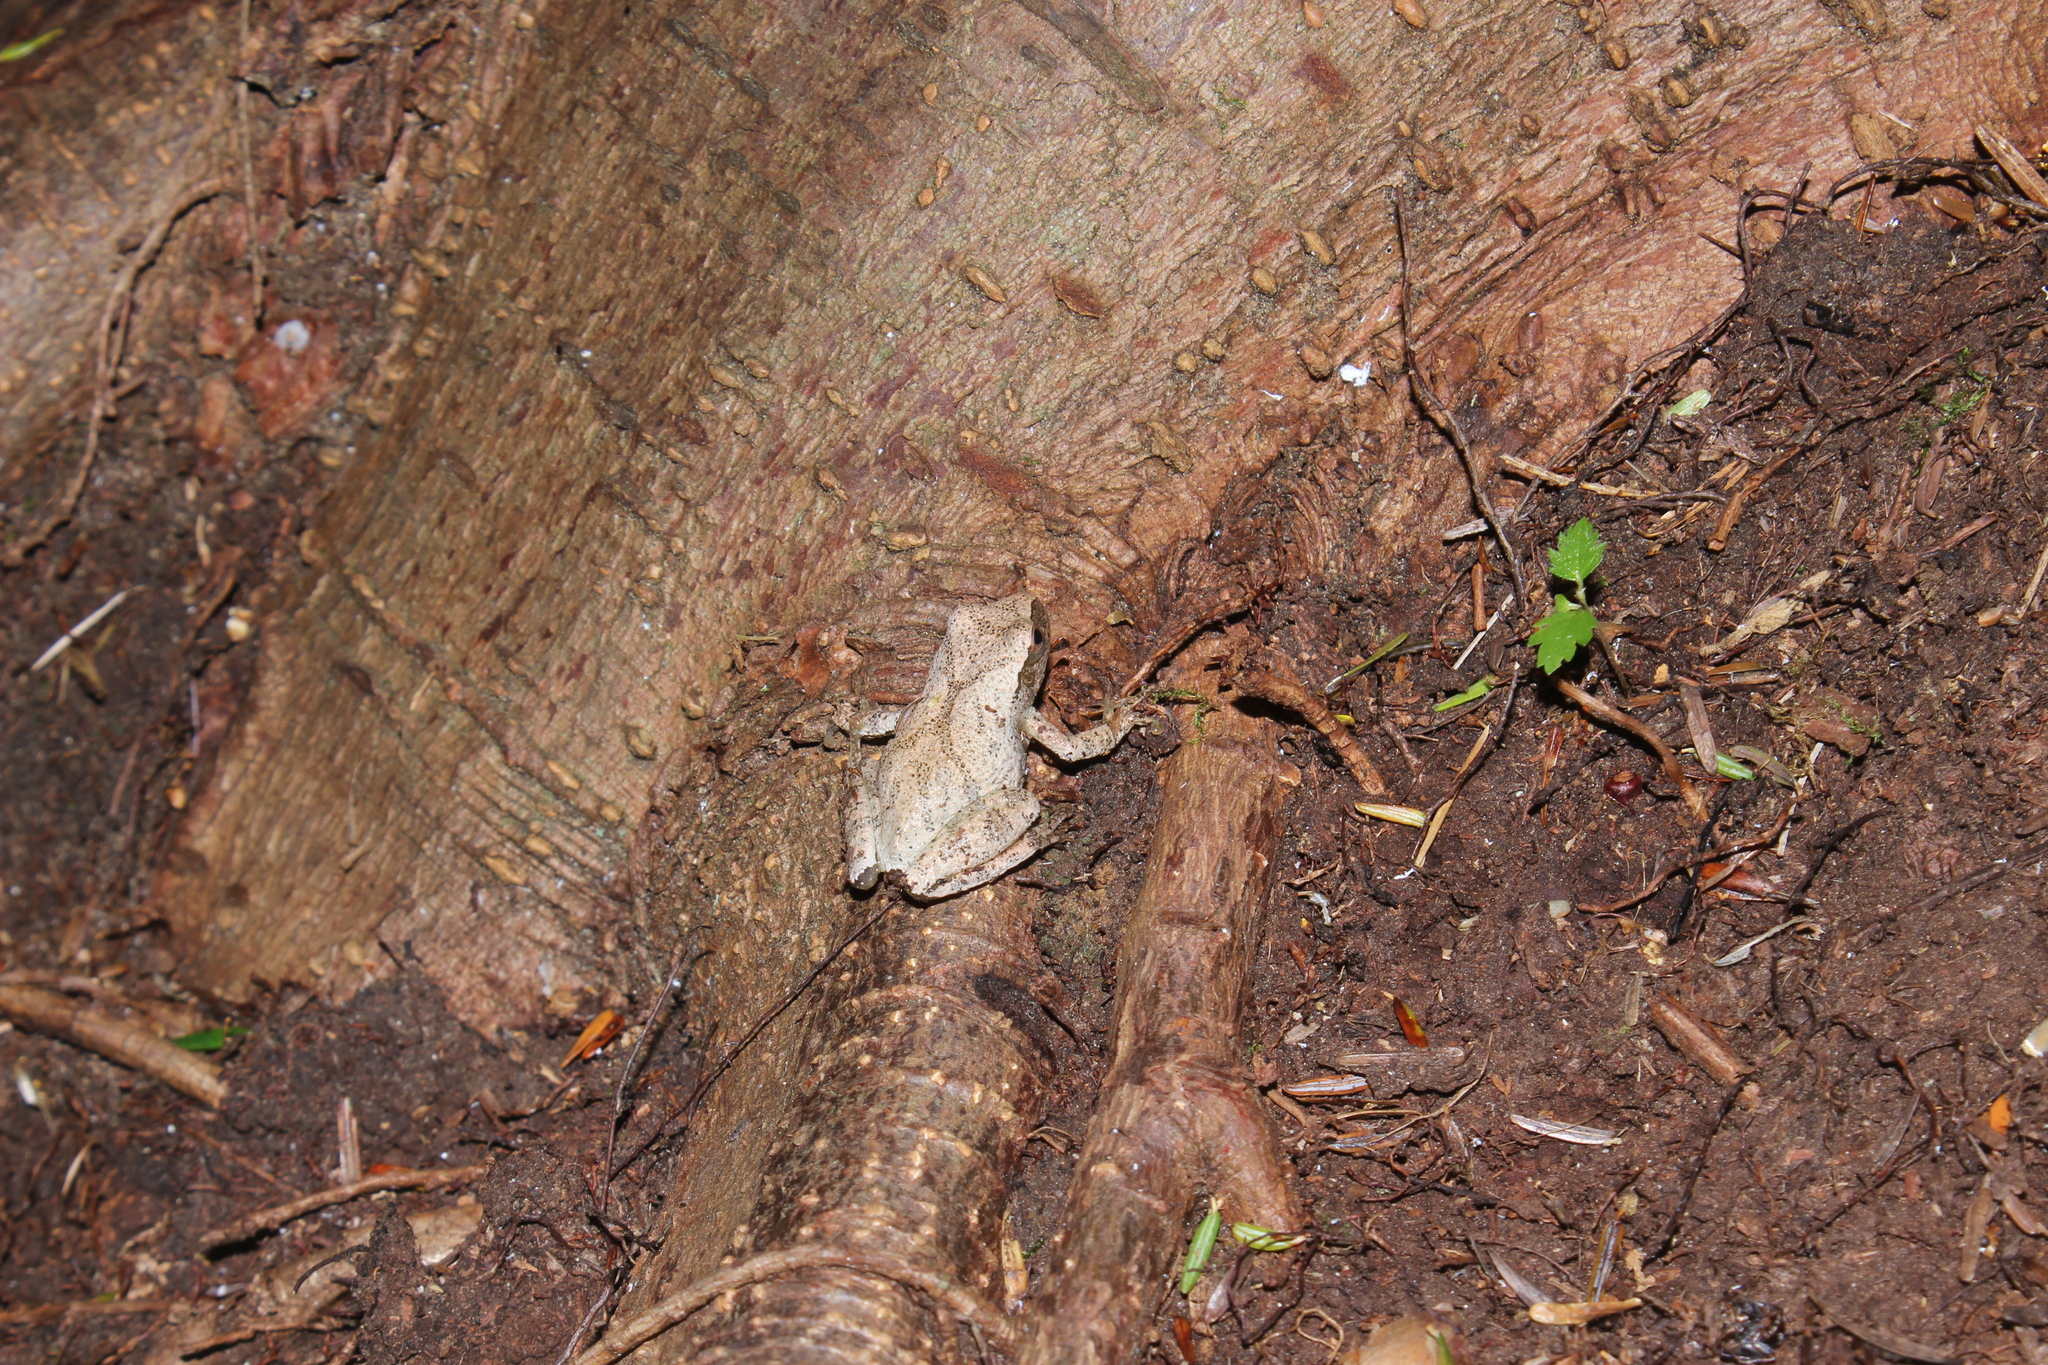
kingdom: Animalia
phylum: Chordata
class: Amphibia
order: Anura
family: Hylidae
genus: Pseudacris
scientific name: Pseudacris crucifer
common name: Spring peeper
